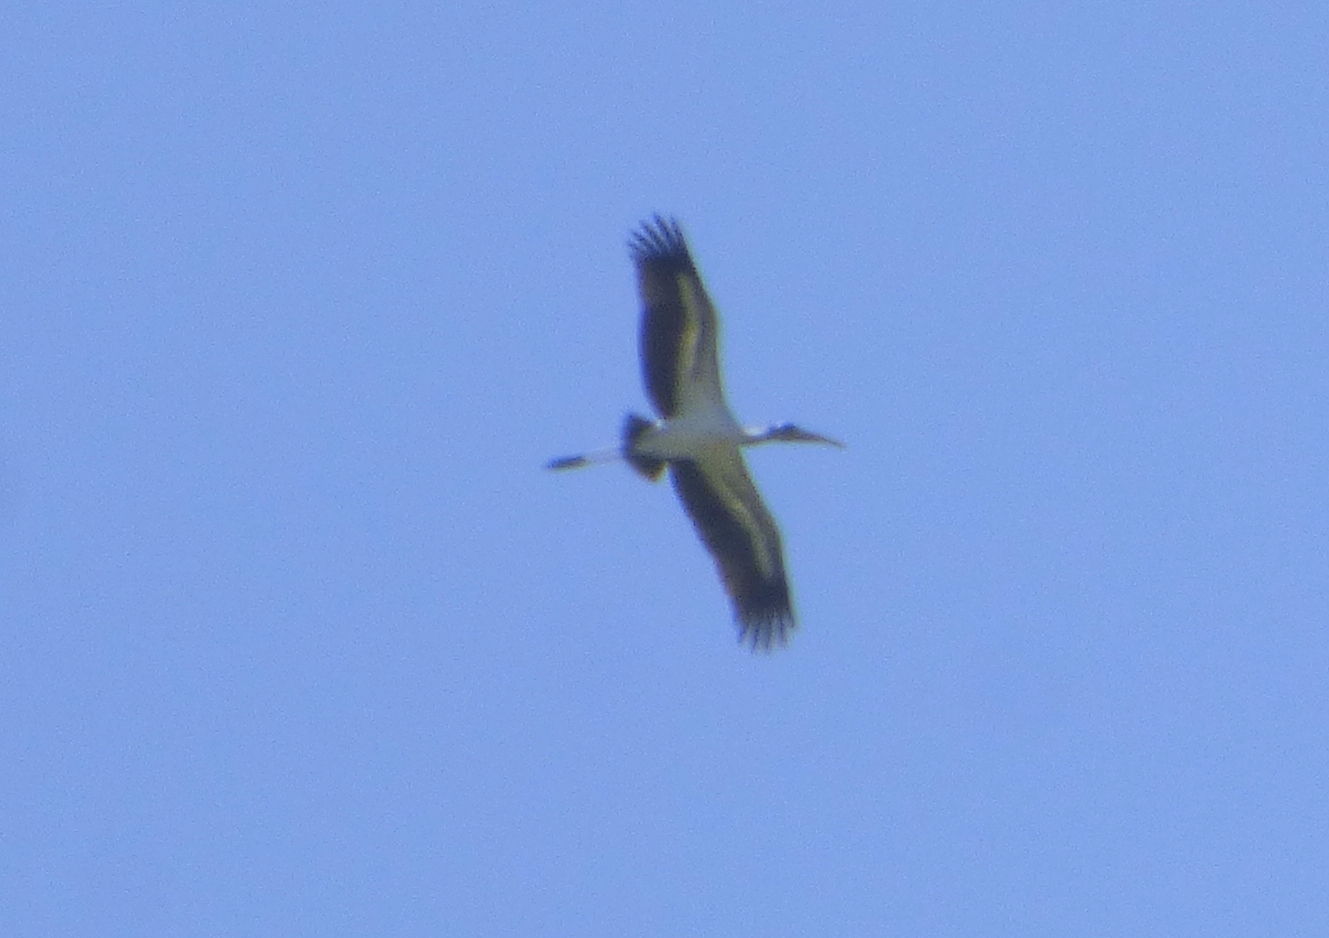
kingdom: Animalia
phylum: Chordata
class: Aves
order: Ciconiiformes
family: Ciconiidae
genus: Mycteria
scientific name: Mycteria americana
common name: Wood stork
